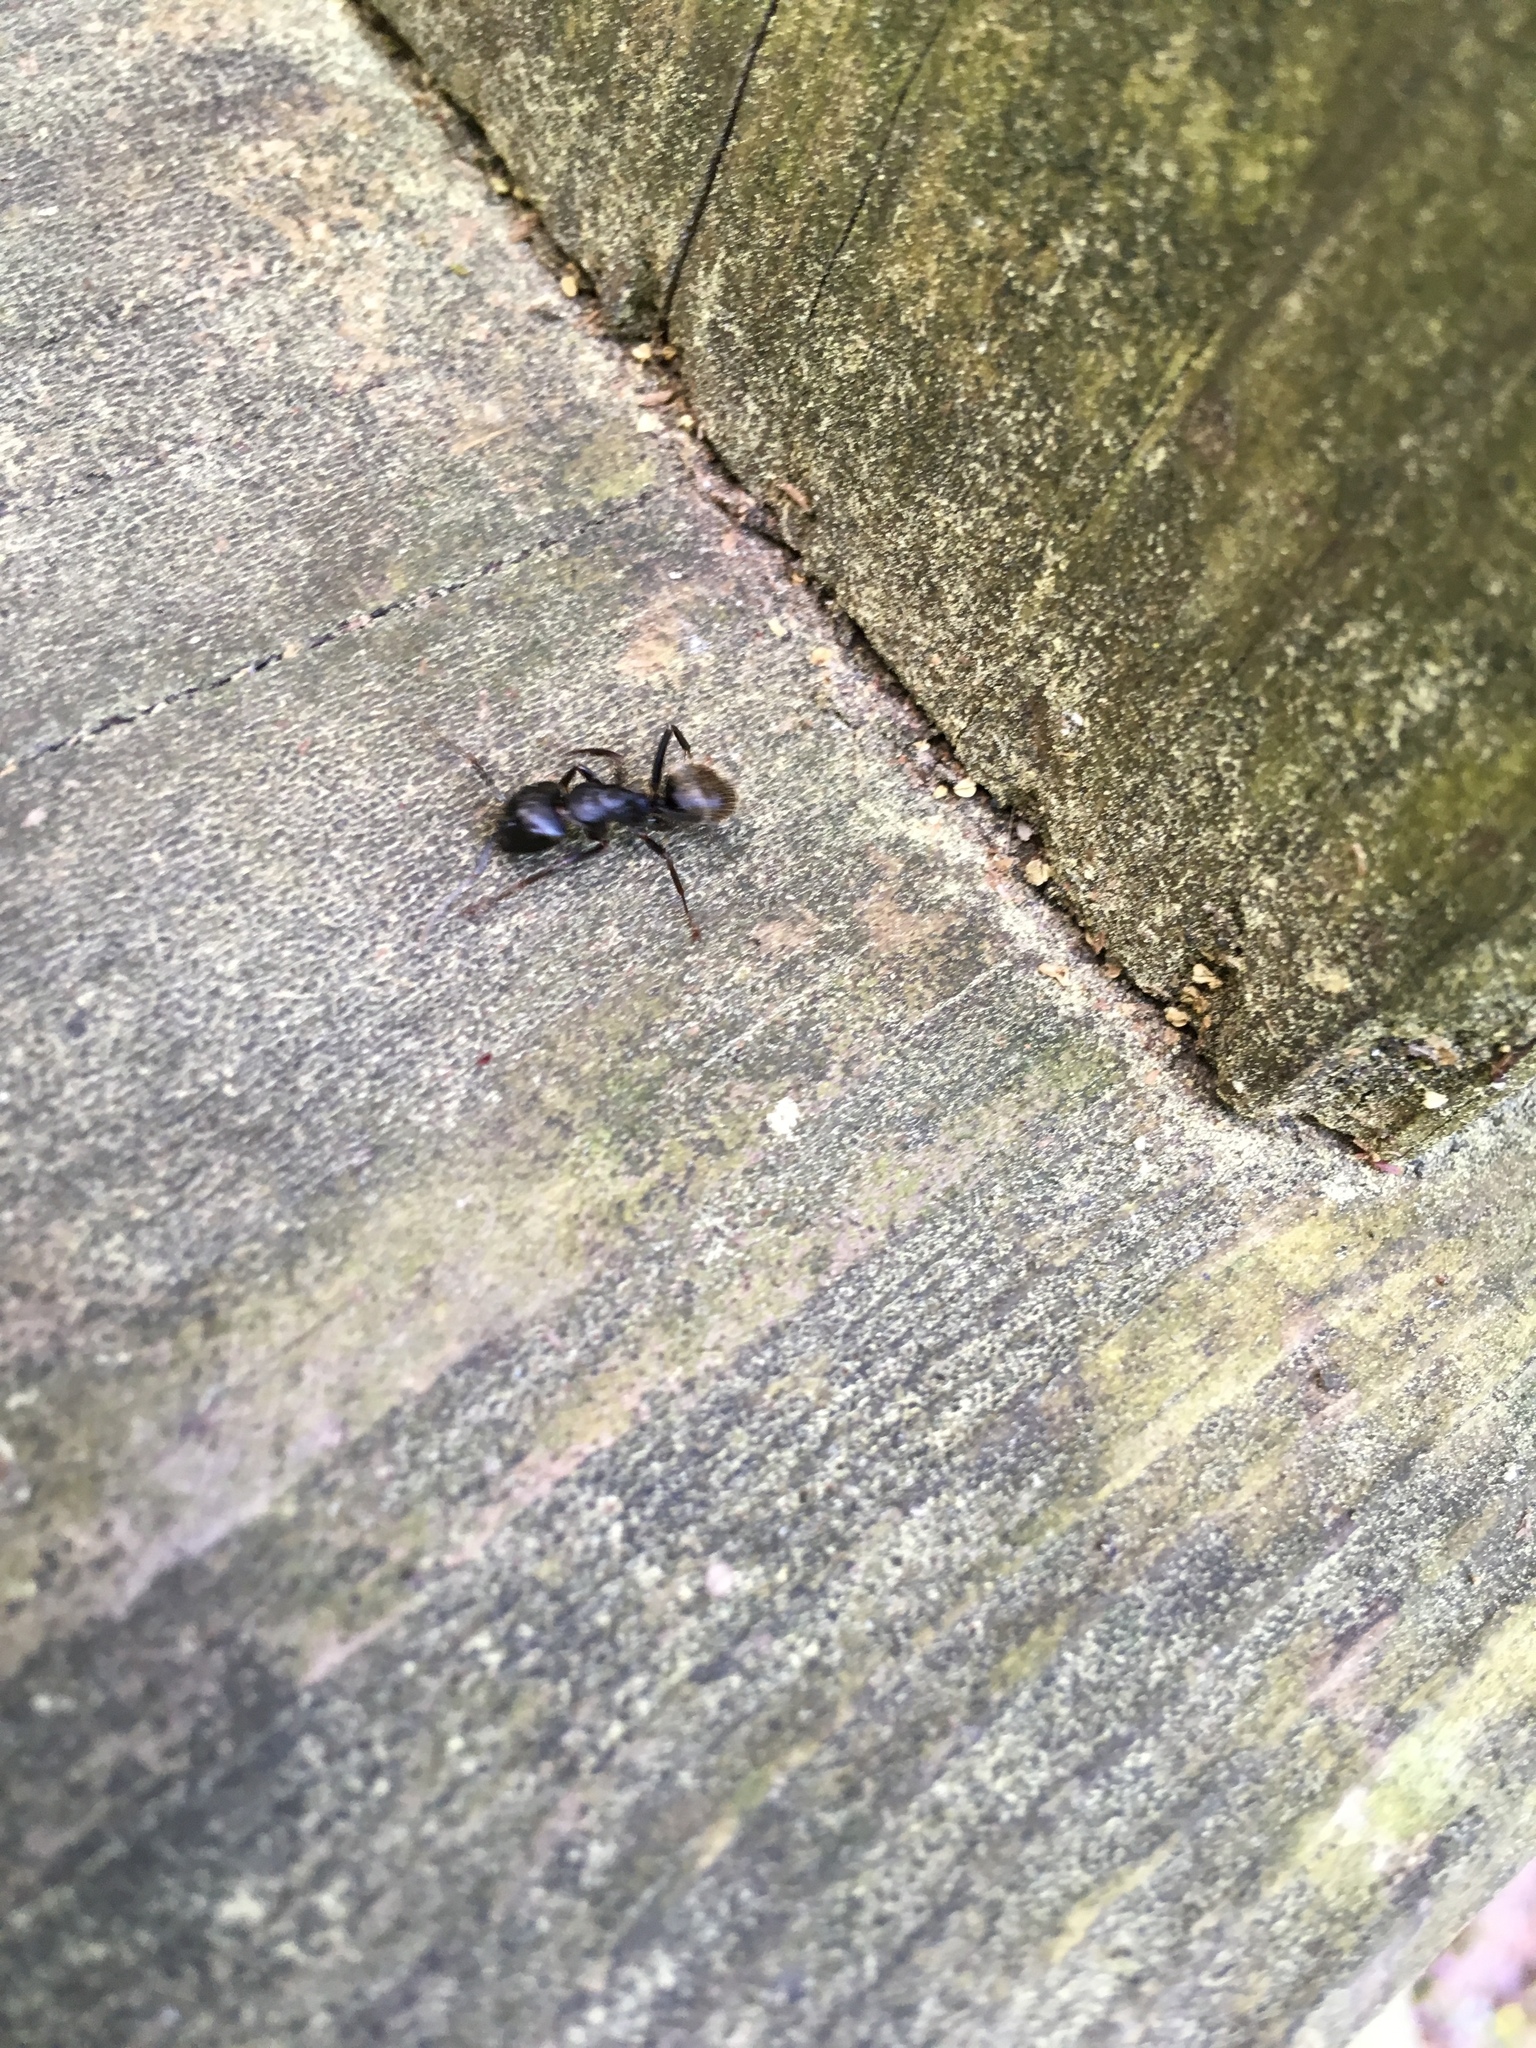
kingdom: Animalia
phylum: Arthropoda
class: Insecta
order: Hymenoptera
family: Formicidae
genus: Camponotus
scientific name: Camponotus pennsylvanicus
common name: Black carpenter ant
